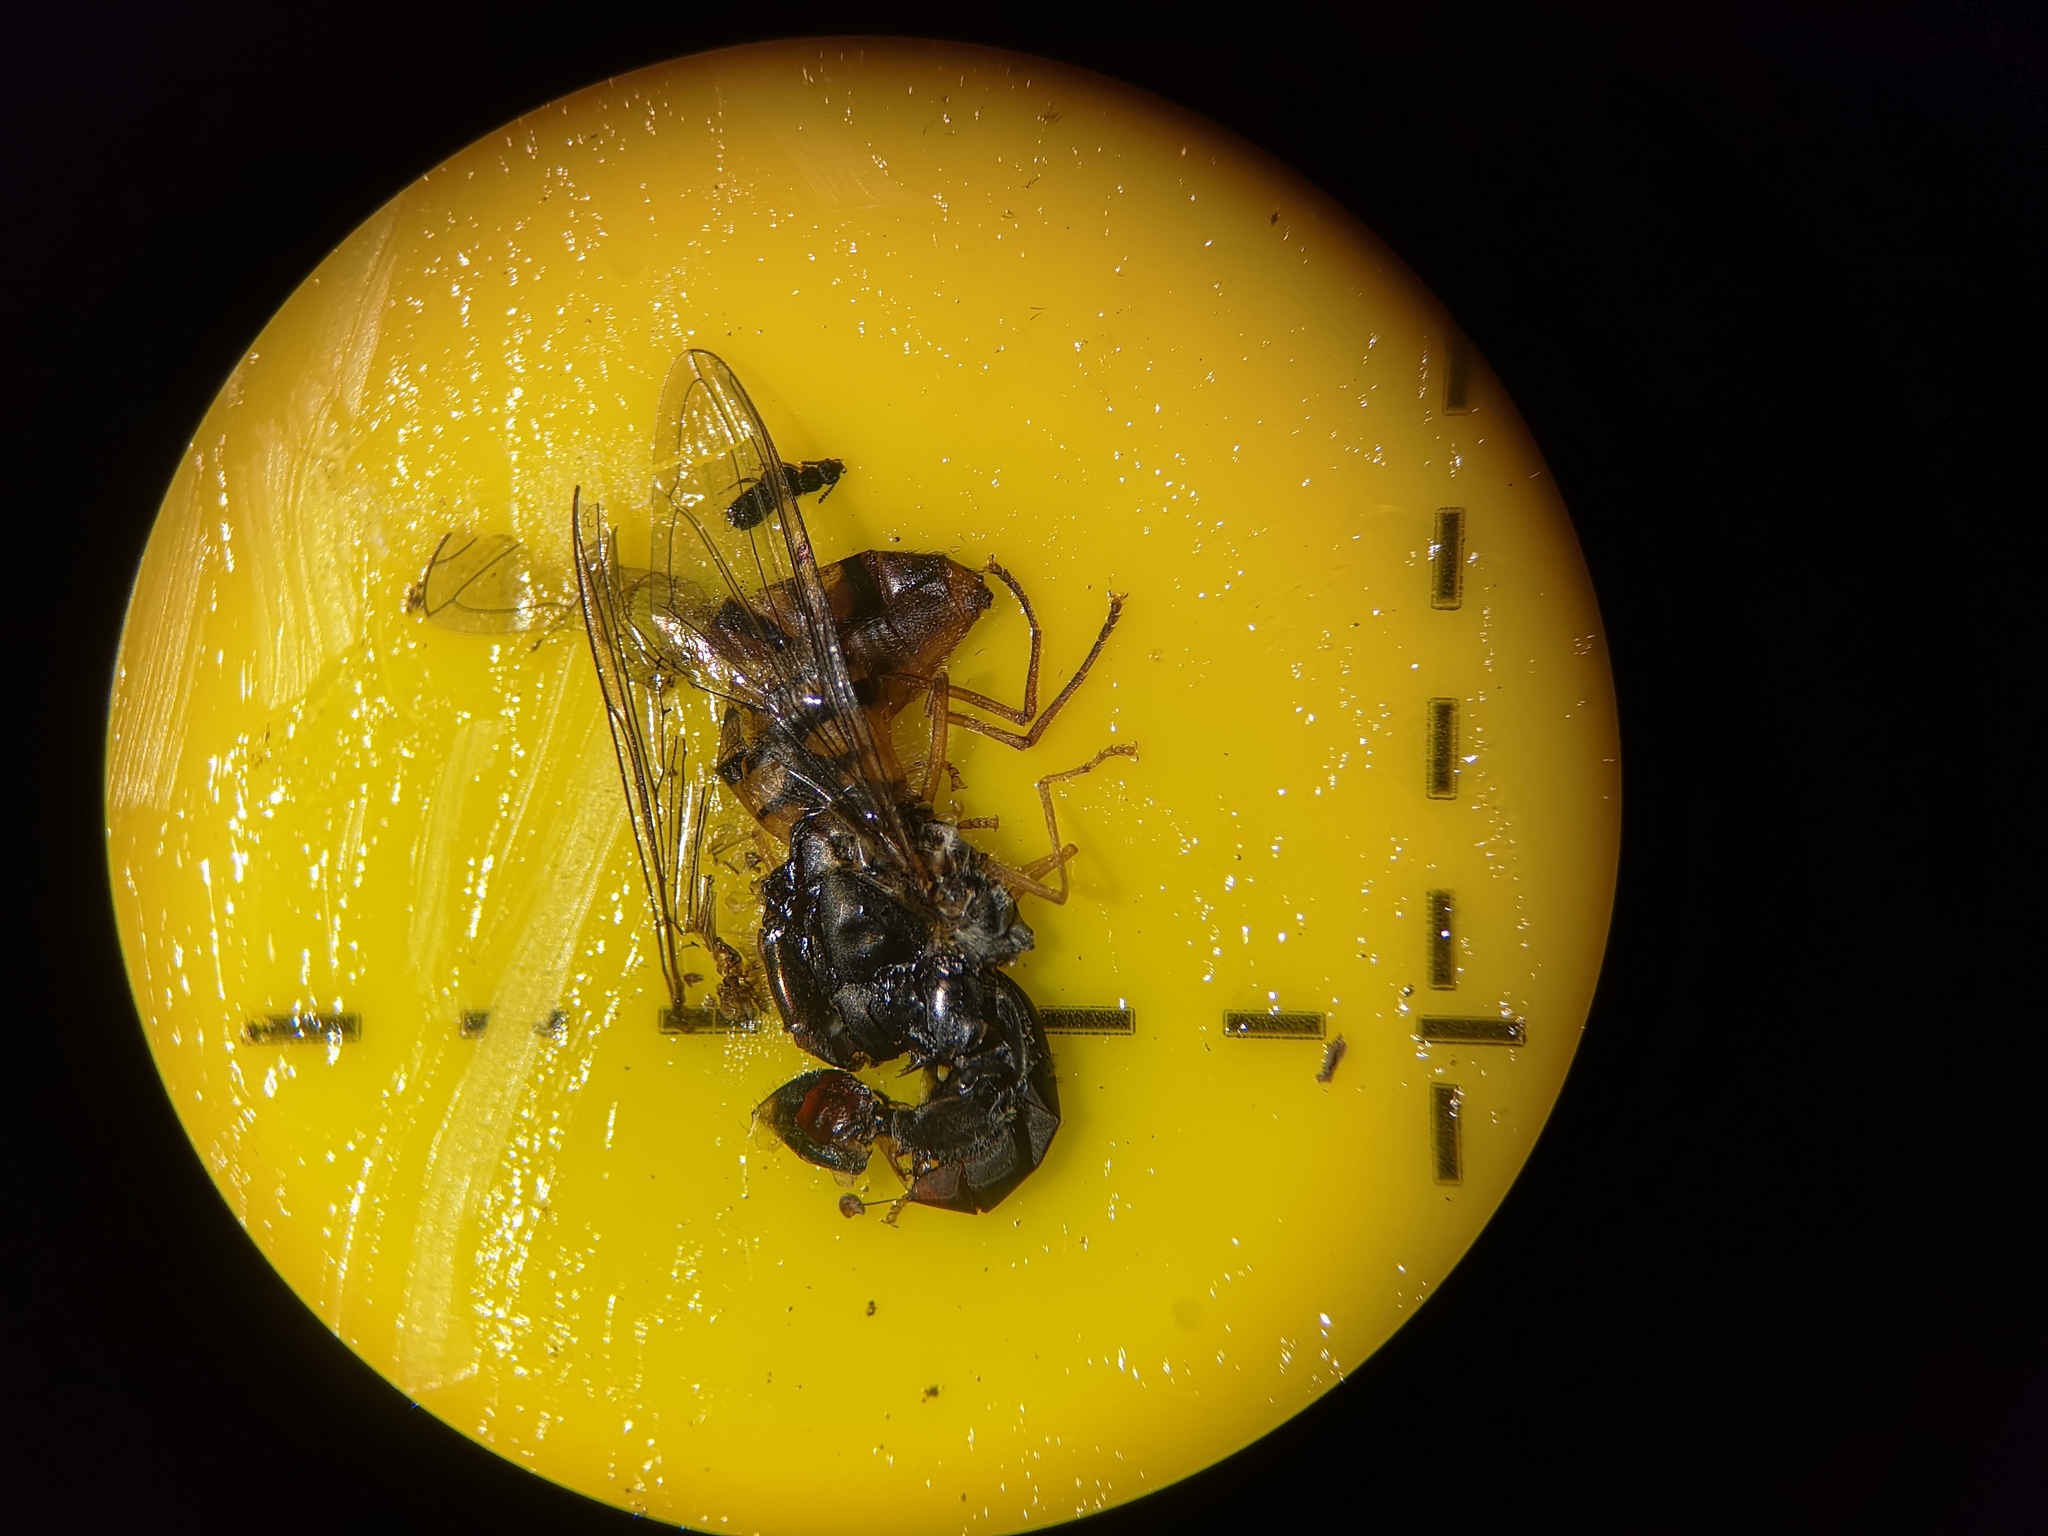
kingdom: Animalia
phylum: Arthropoda
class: Insecta
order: Diptera
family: Syrphidae
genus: Episyrphus
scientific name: Episyrphus balteatus
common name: Marmalade hoverfly
